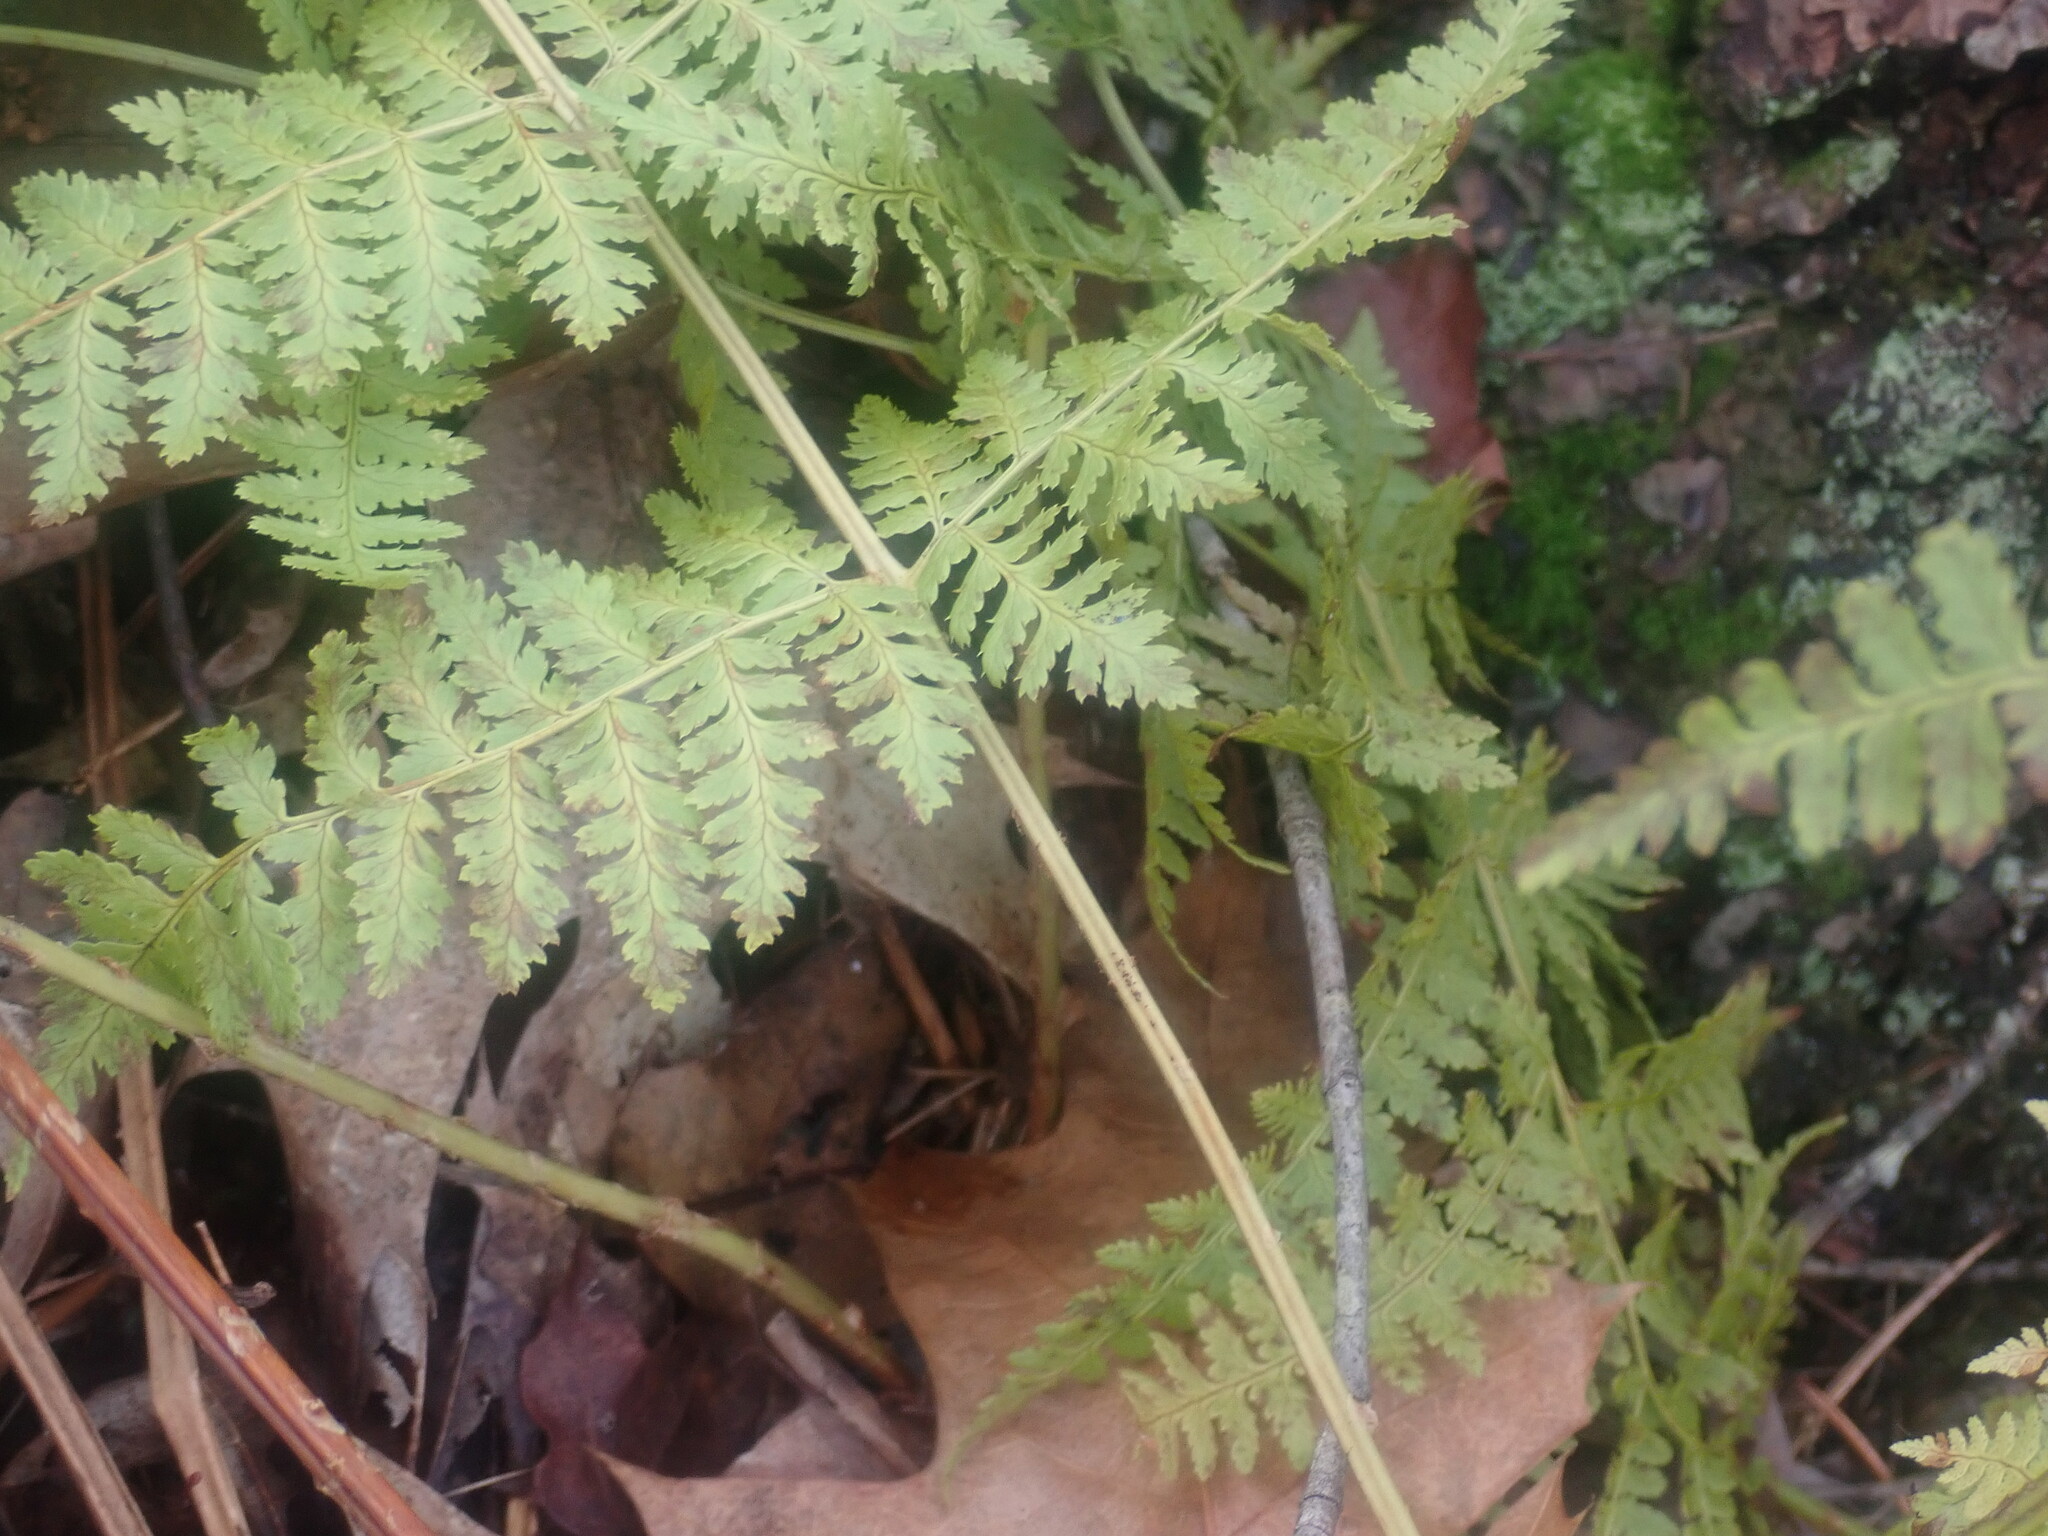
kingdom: Plantae
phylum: Tracheophyta
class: Polypodiopsida
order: Polypodiales
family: Dryopteridaceae
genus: Dryopteris
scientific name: Dryopteris intermedia
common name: Evergreen wood fern
